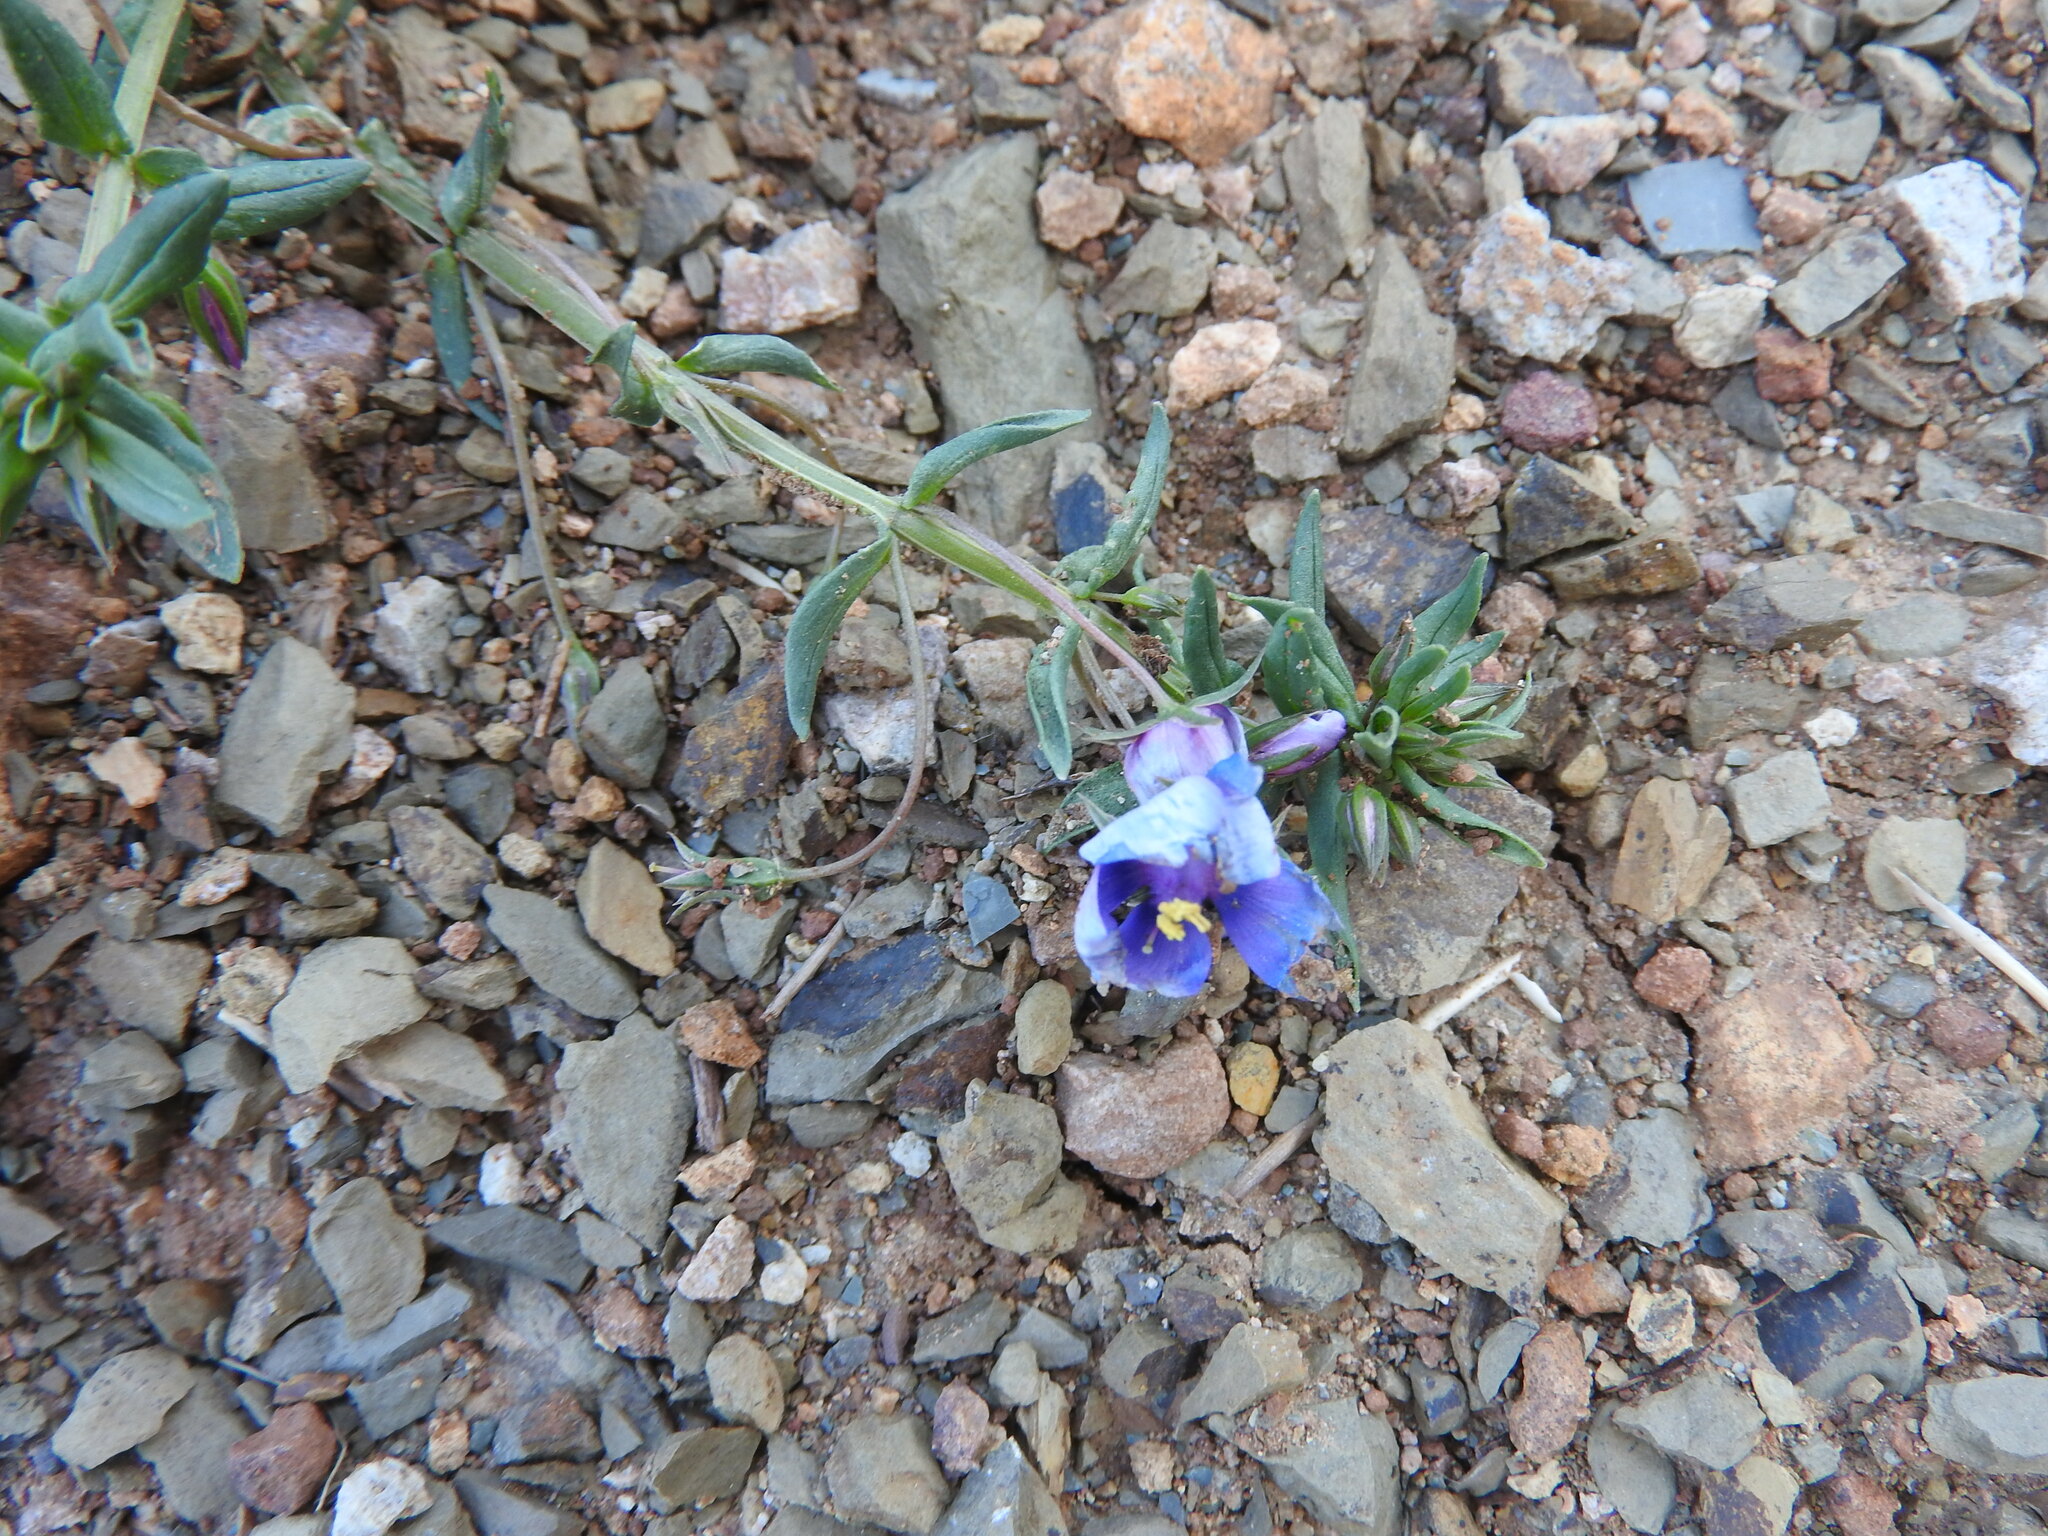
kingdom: Plantae
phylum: Tracheophyta
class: Magnoliopsida
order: Ericales
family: Primulaceae
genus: Lysimachia
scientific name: Lysimachia monelli
